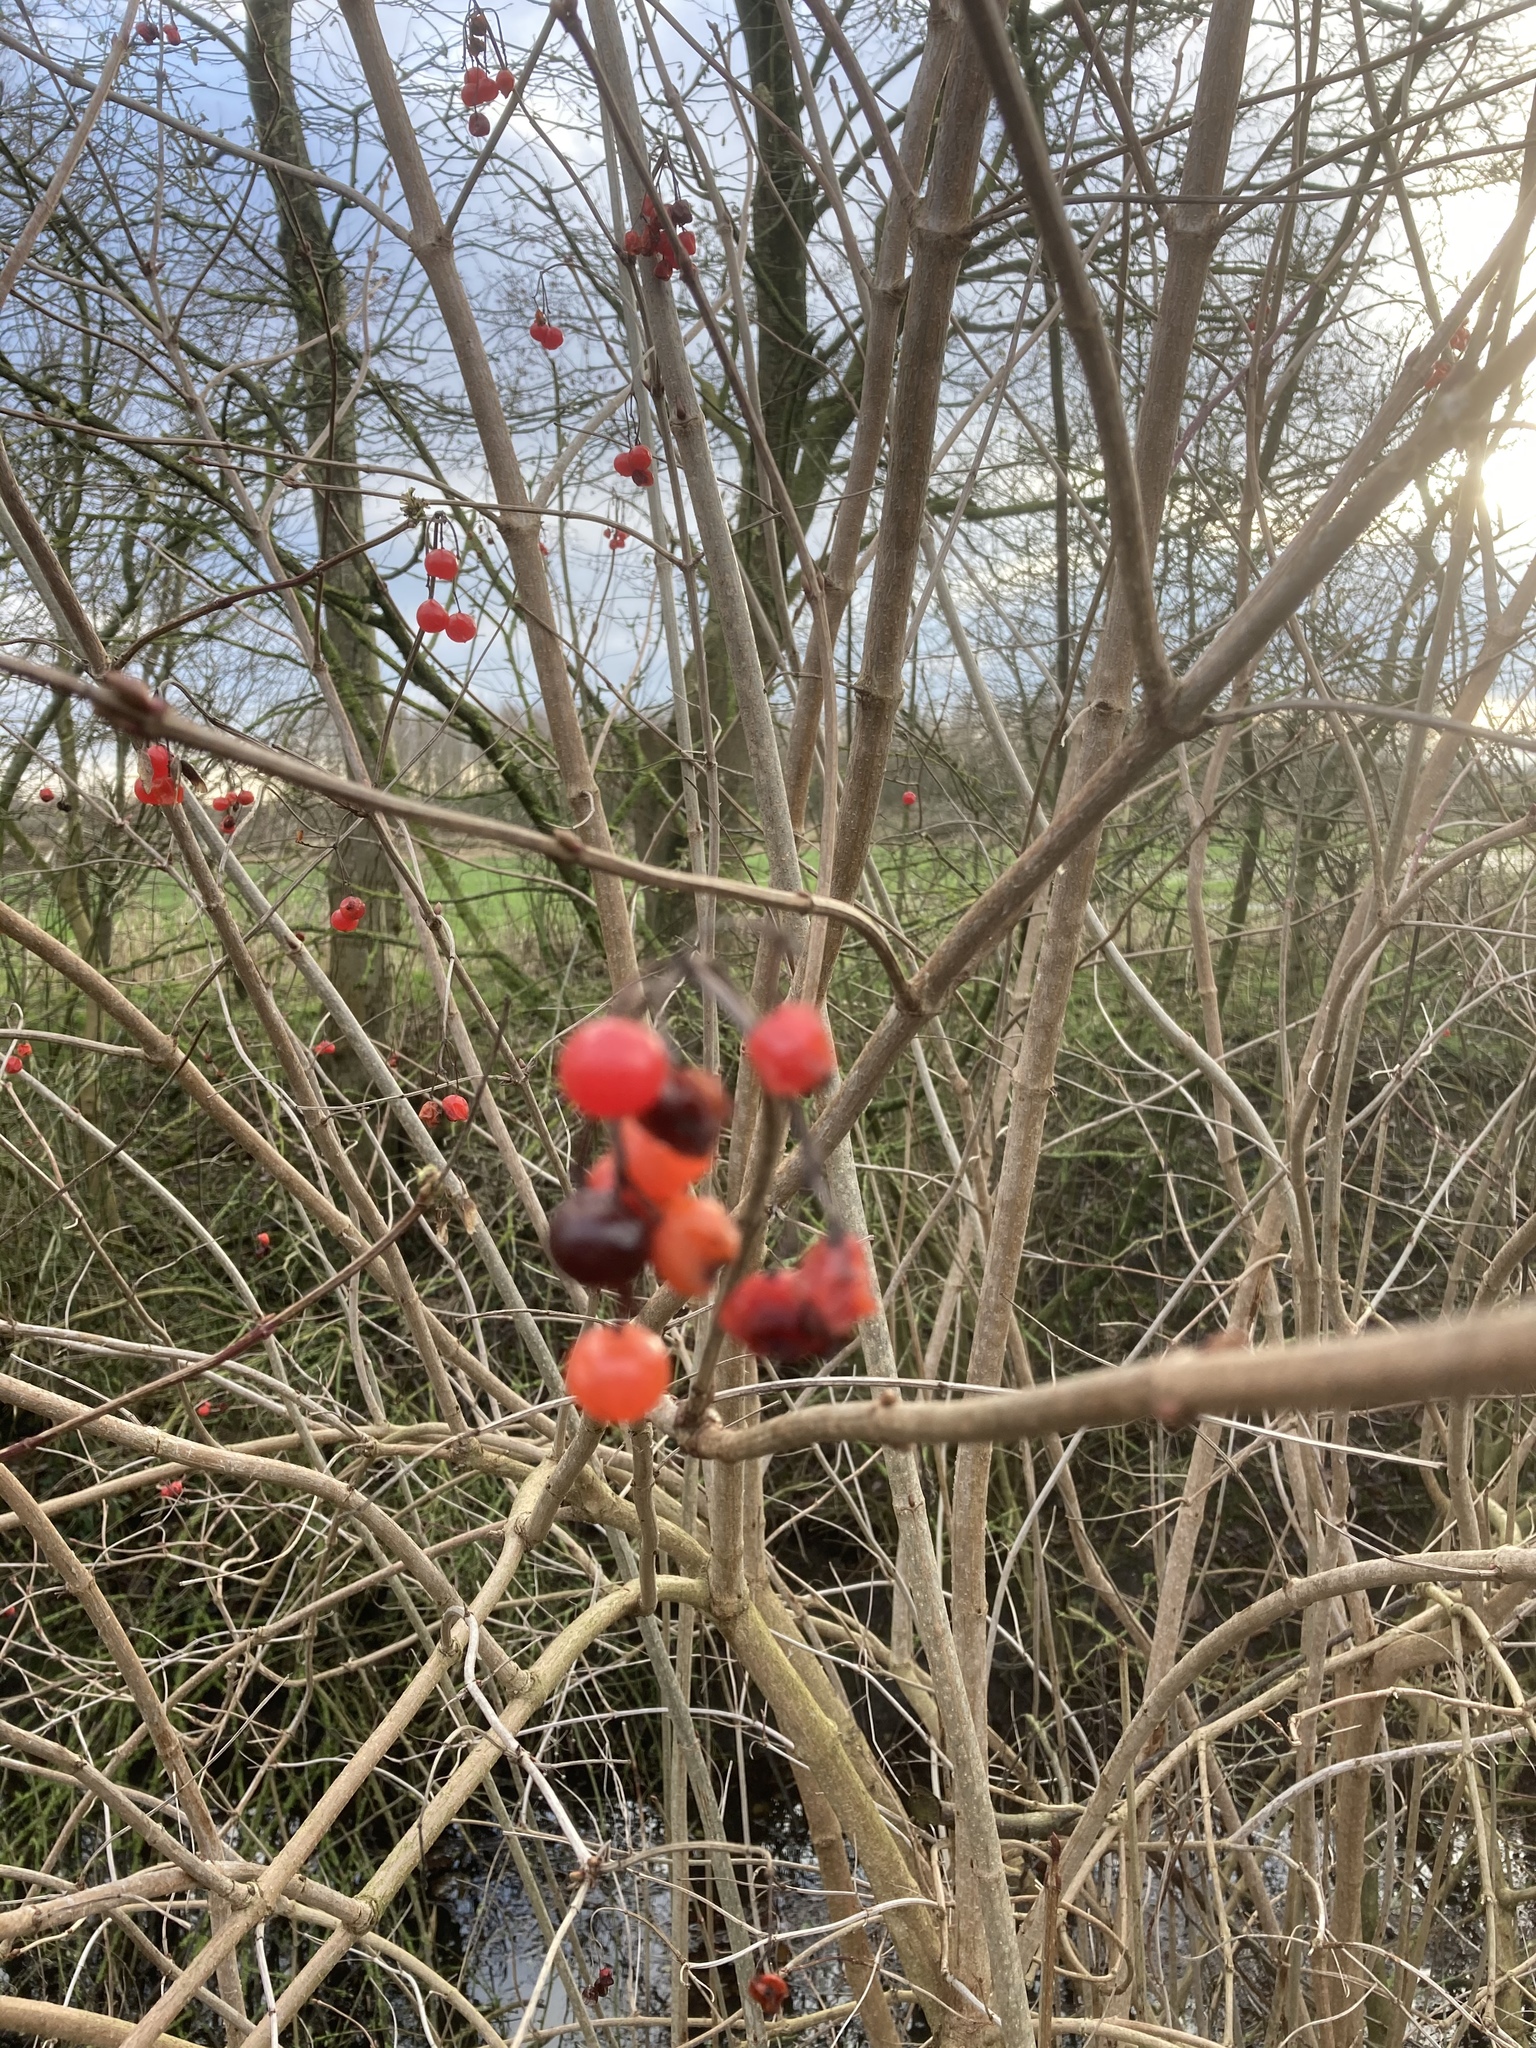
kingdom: Plantae
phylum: Tracheophyta
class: Magnoliopsida
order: Dipsacales
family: Viburnaceae
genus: Viburnum
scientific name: Viburnum opulus
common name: Guelder-rose
